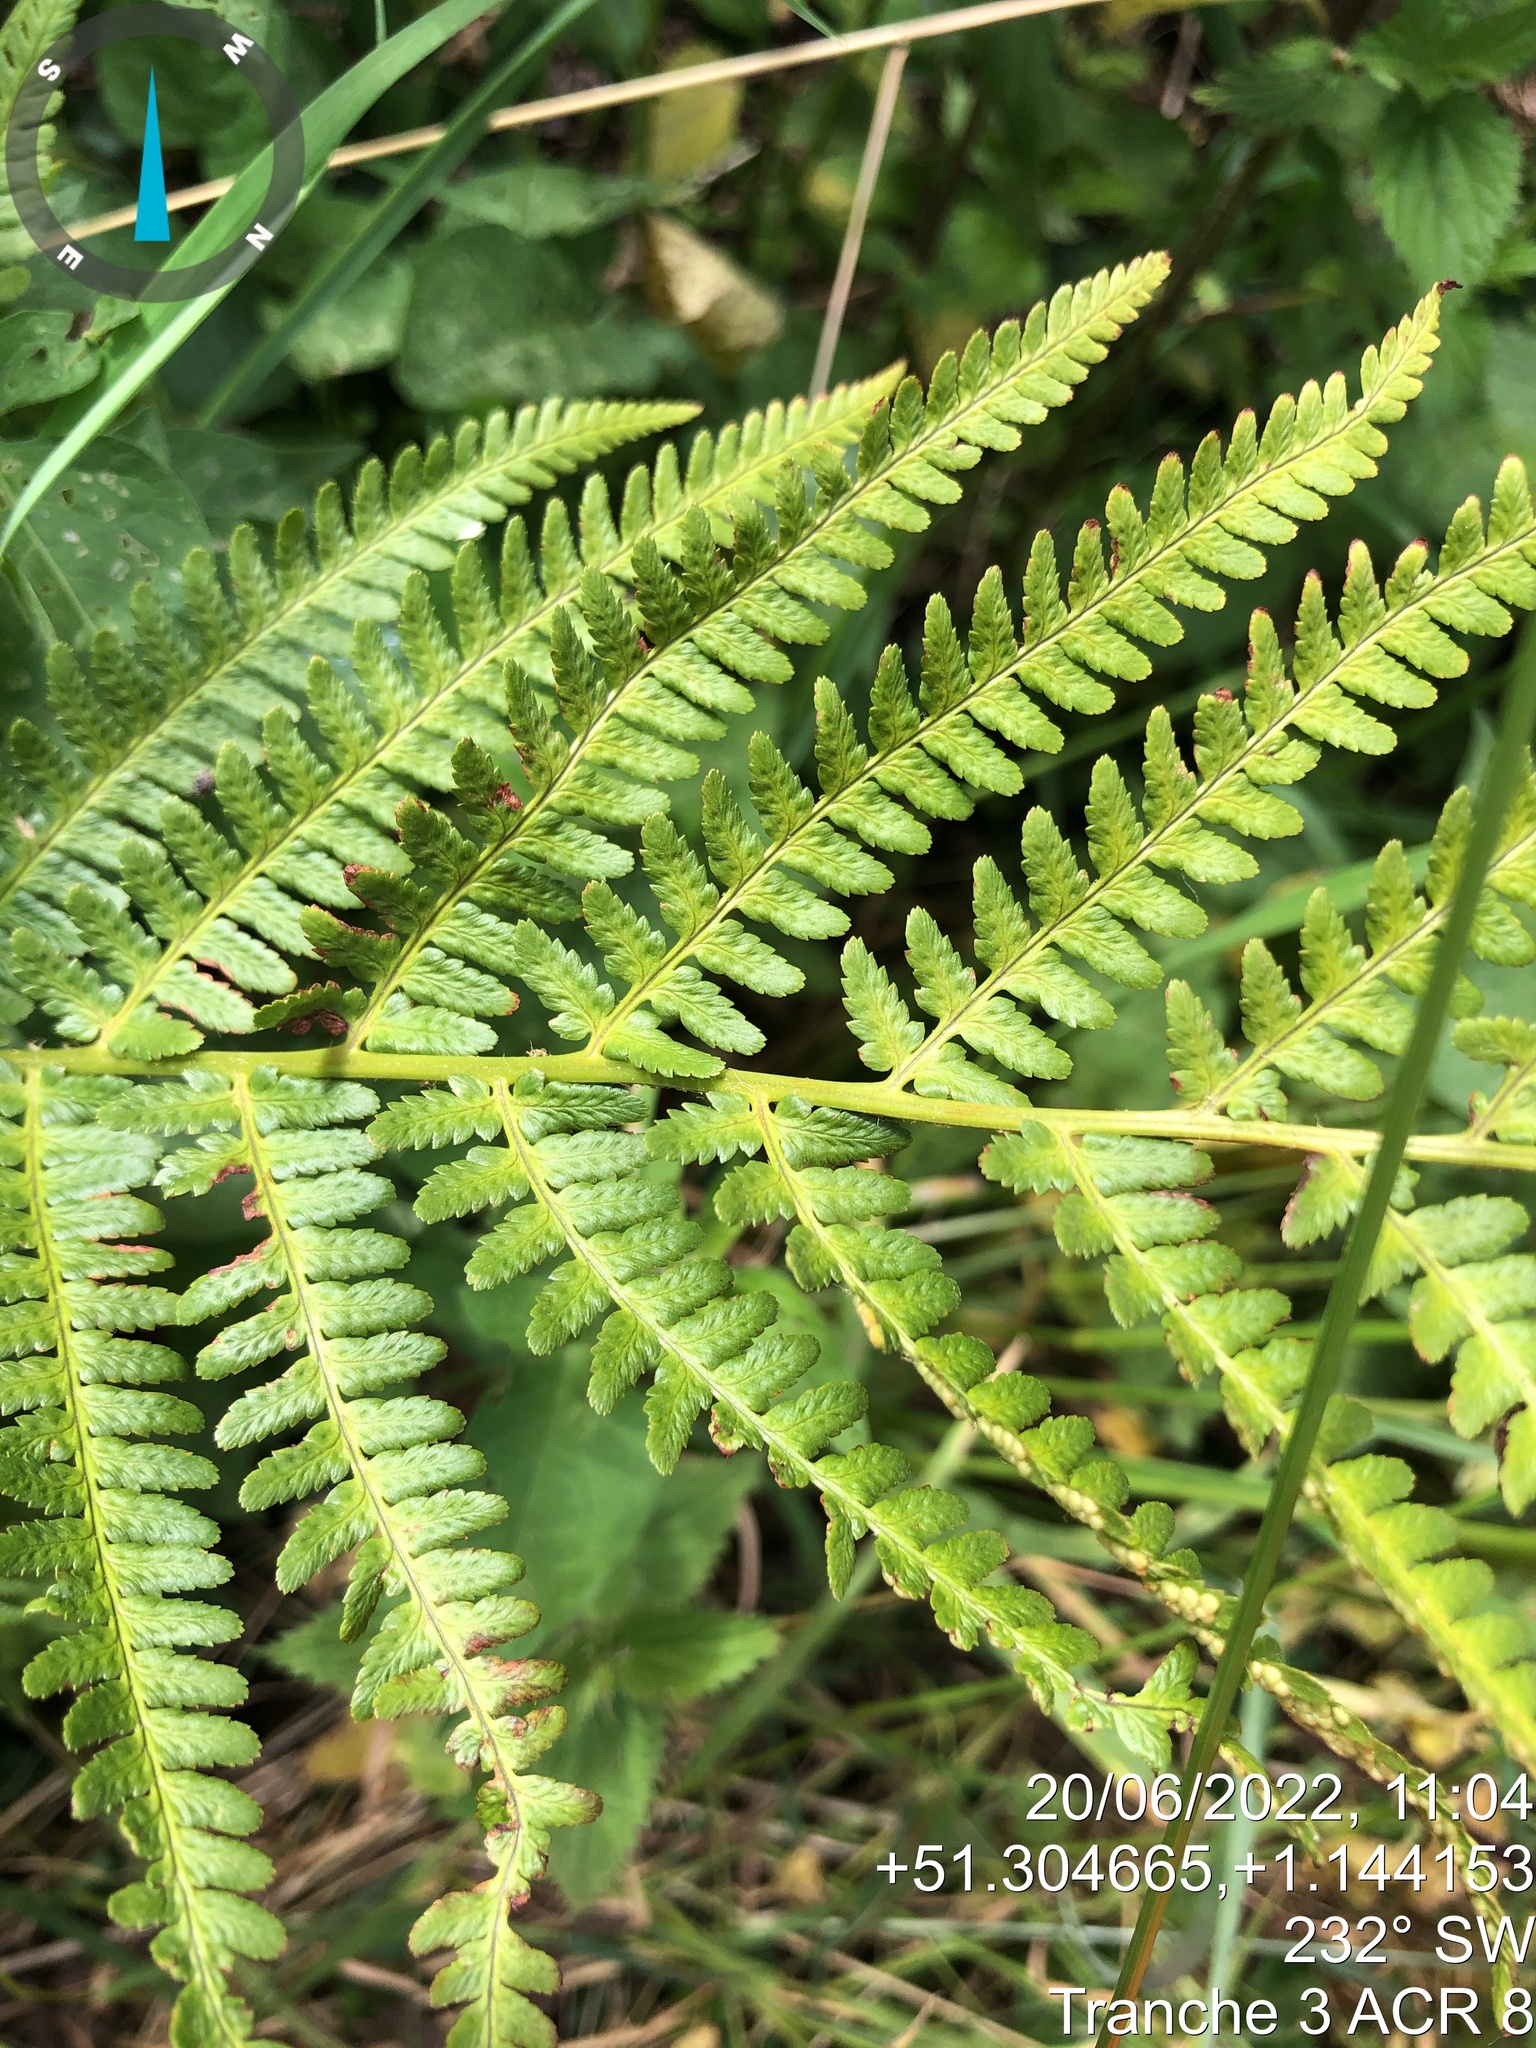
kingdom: Plantae
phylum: Tracheophyta
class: Polypodiopsida
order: Polypodiales
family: Dryopteridaceae
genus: Dryopteris
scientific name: Dryopteris filix-mas
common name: Male fern
